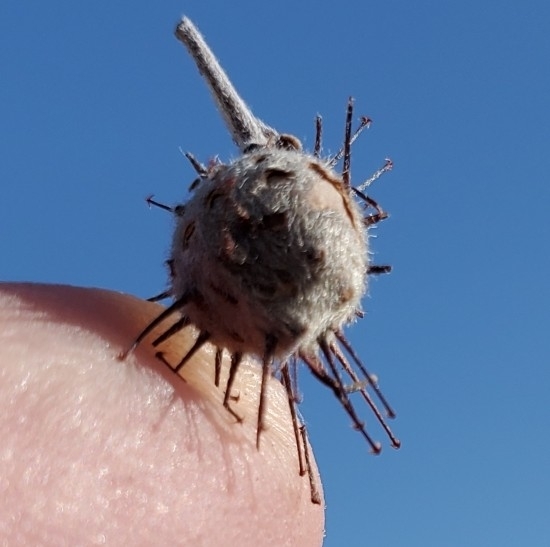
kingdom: Plantae
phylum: Tracheophyta
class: Magnoliopsida
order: Zygophyllales
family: Krameriaceae
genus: Krameria
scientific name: Krameria bicolor
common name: White ratany
